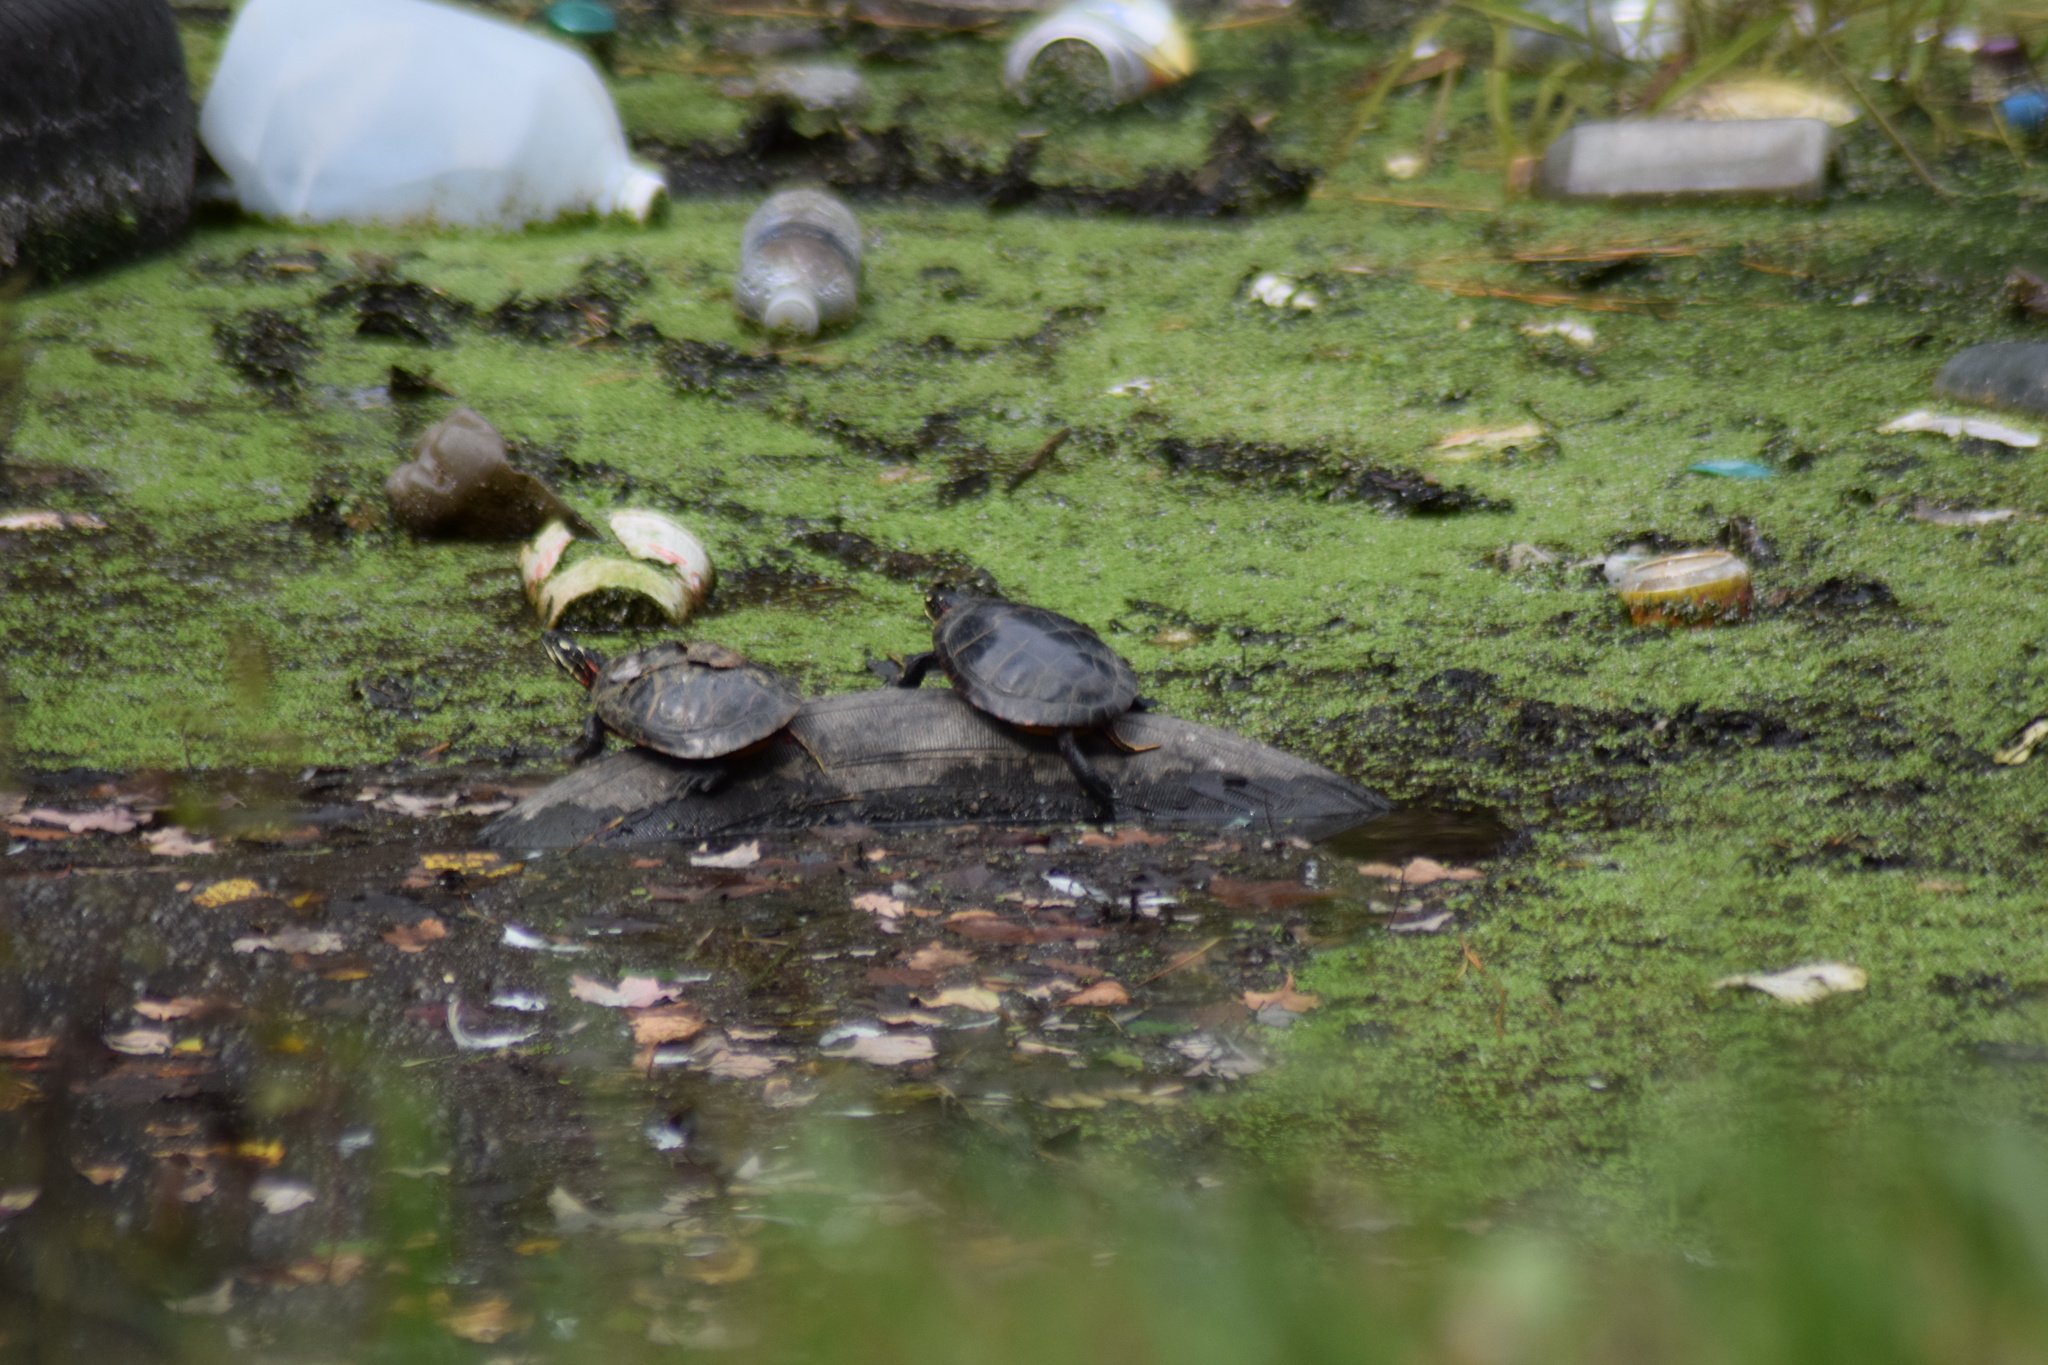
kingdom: Animalia
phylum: Chordata
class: Testudines
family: Emydidae
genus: Chrysemys
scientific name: Chrysemys picta
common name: Painted turtle
